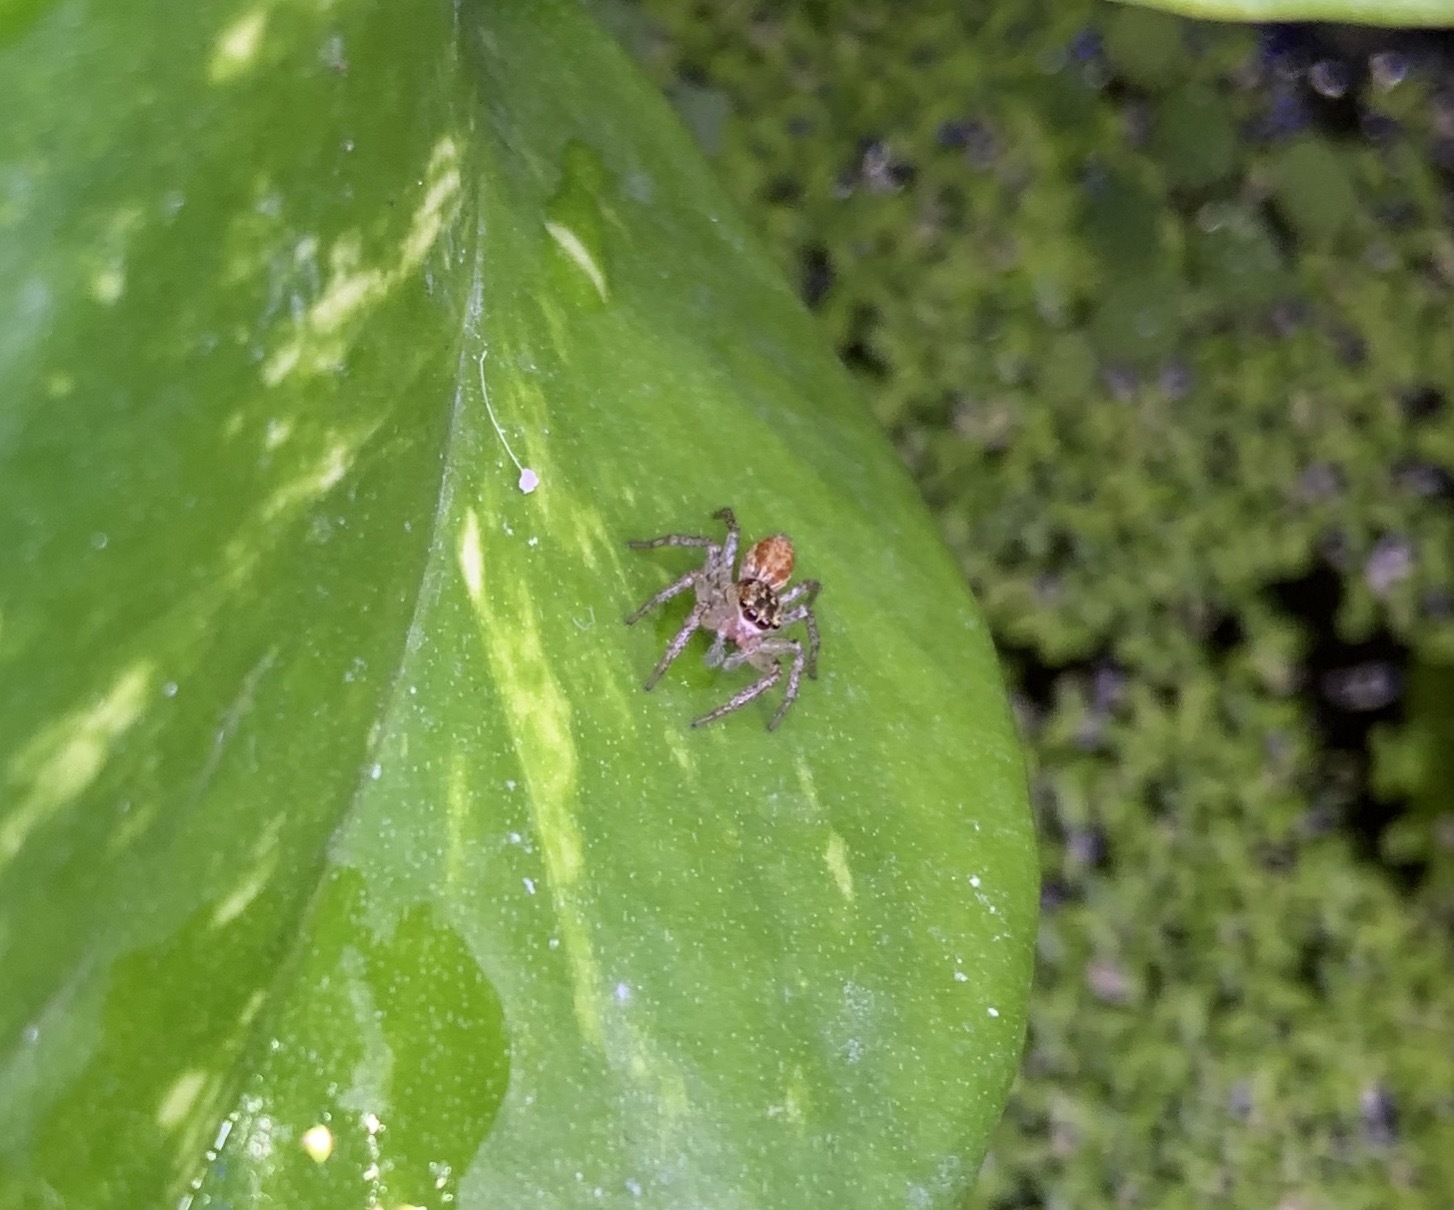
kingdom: Animalia
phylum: Arthropoda
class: Arachnida
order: Araneae
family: Salticidae
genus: Maevia
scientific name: Maevia inclemens
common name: Dimorphic jumper
